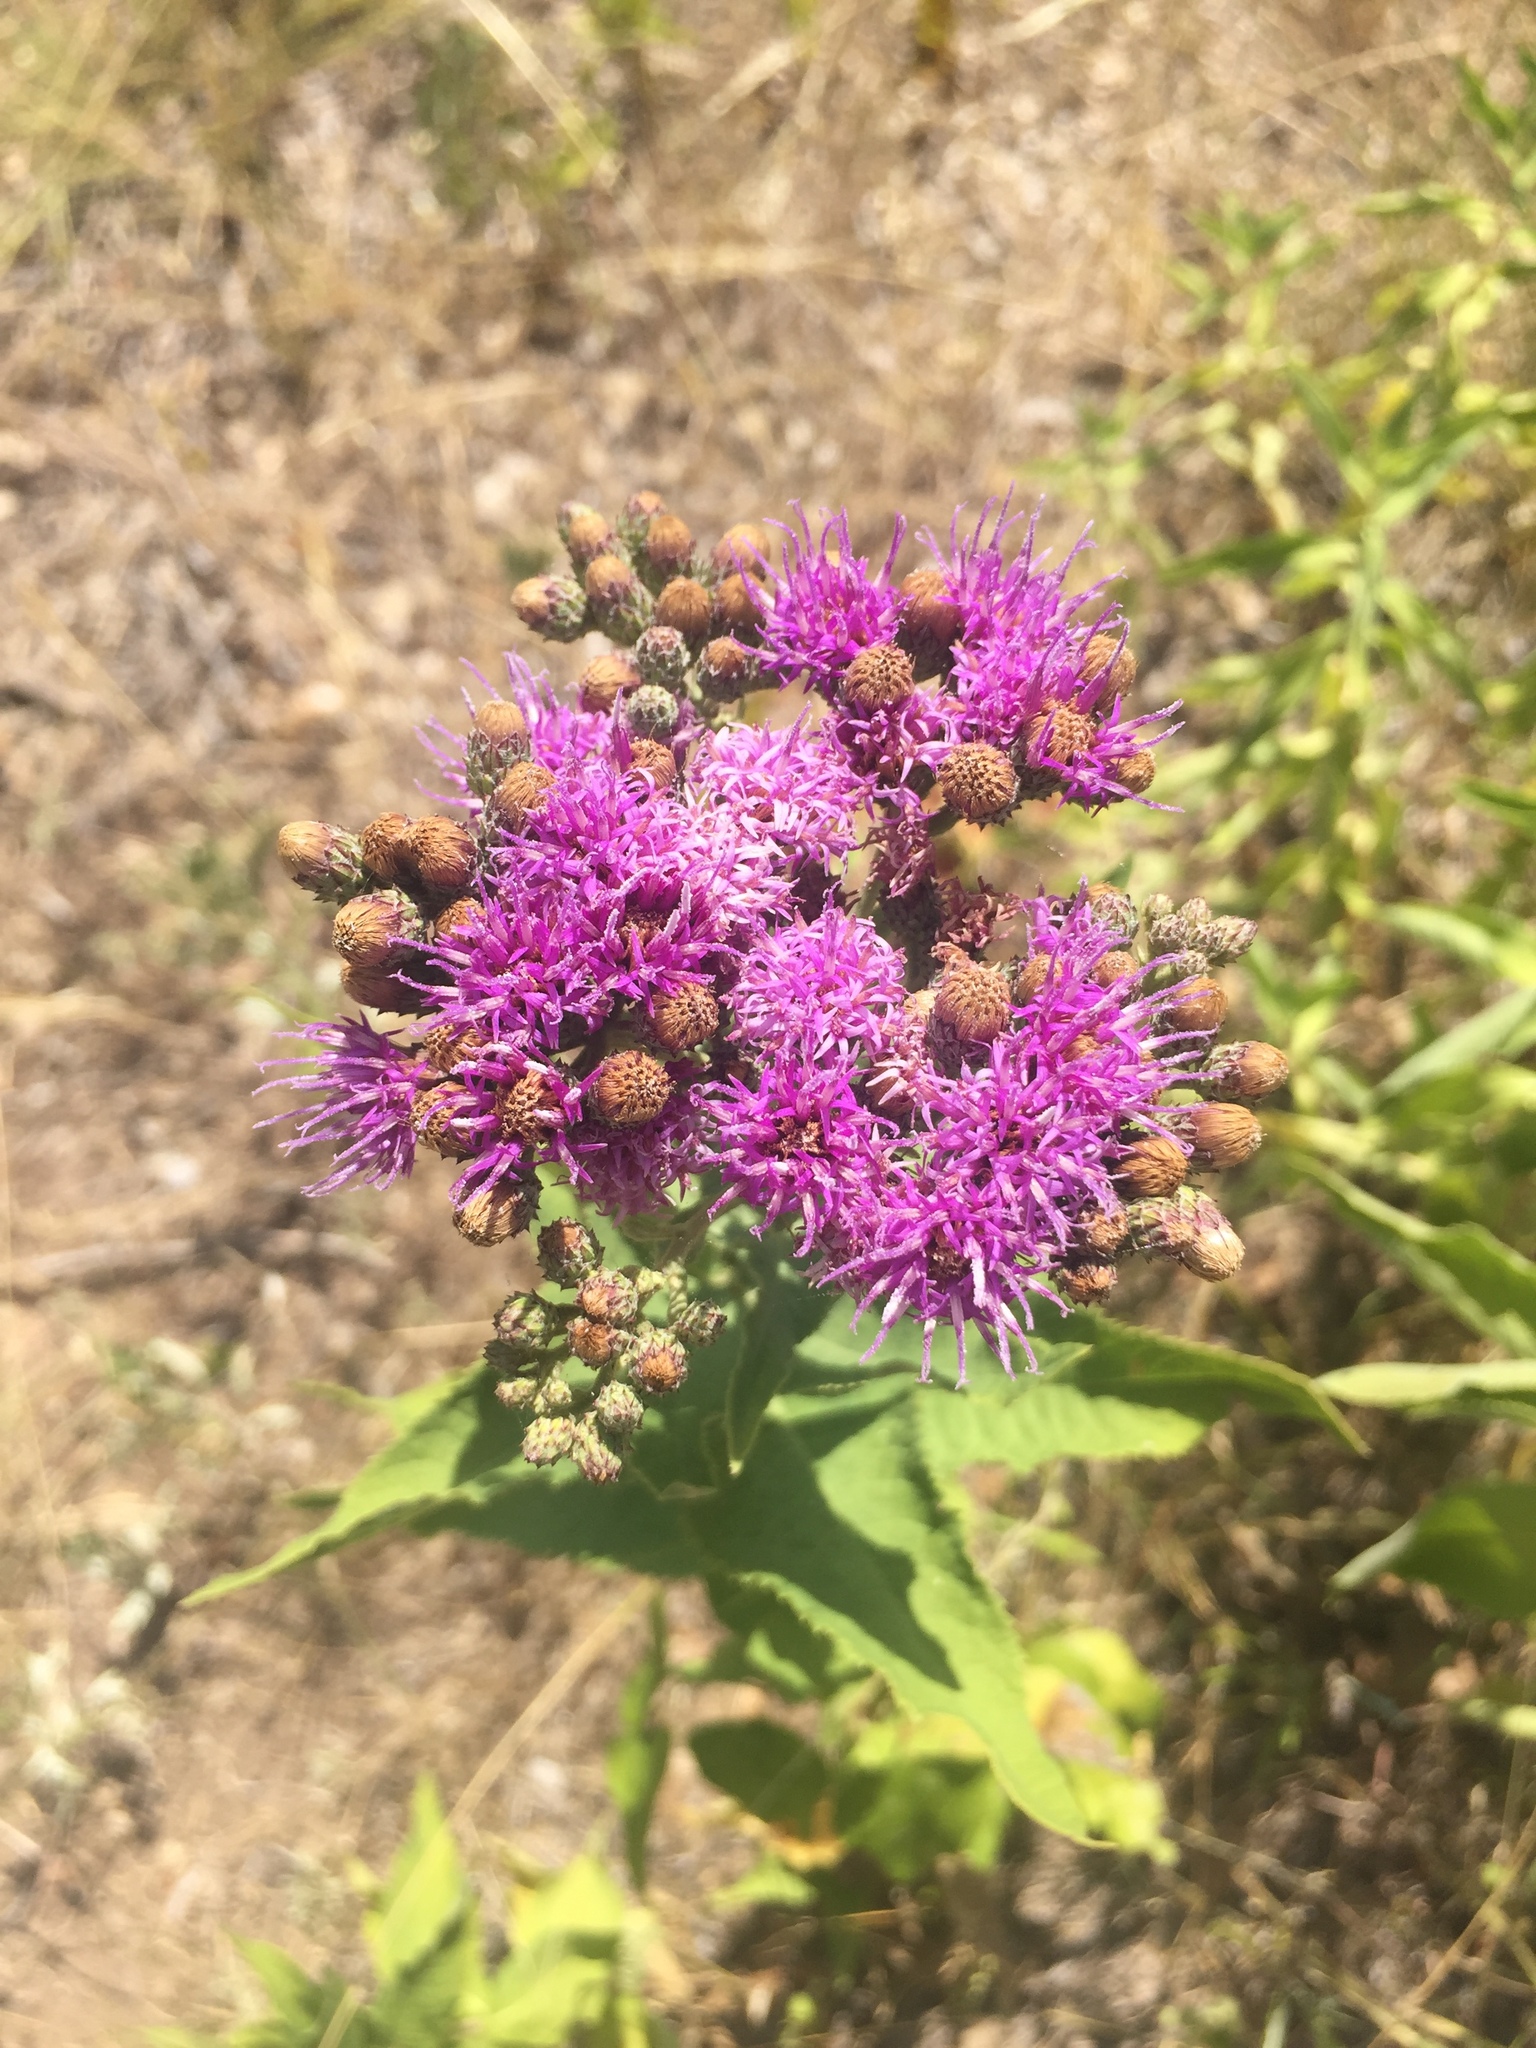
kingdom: Plantae
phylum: Tracheophyta
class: Magnoliopsida
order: Asterales
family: Asteraceae
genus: Vernonia
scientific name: Vernonia baldwinii
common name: Western ironweed
